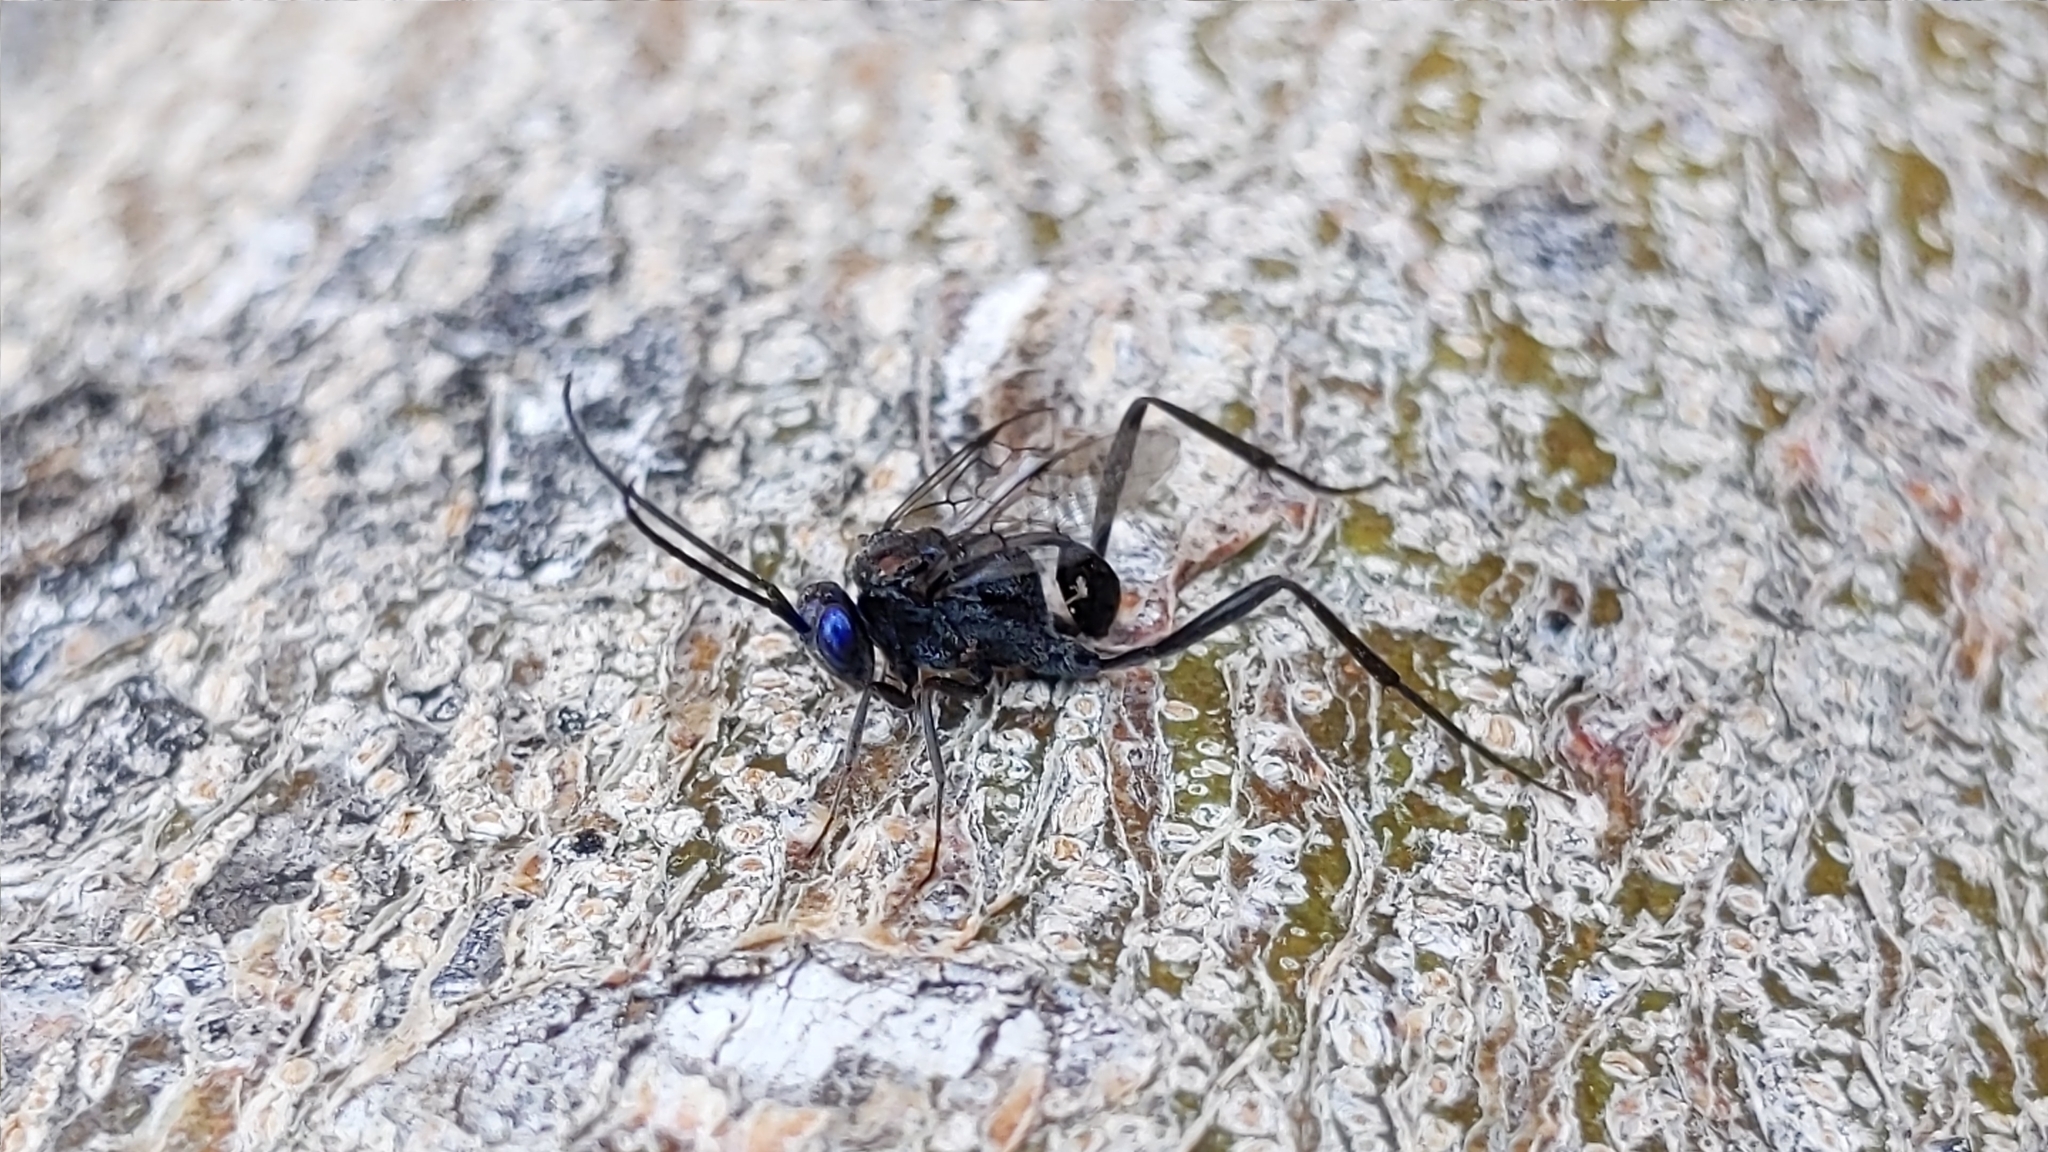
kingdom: Animalia
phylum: Arthropoda
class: Insecta
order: Hymenoptera
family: Evaniidae
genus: Evania
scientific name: Evania appendigaster
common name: Ensign wasp
